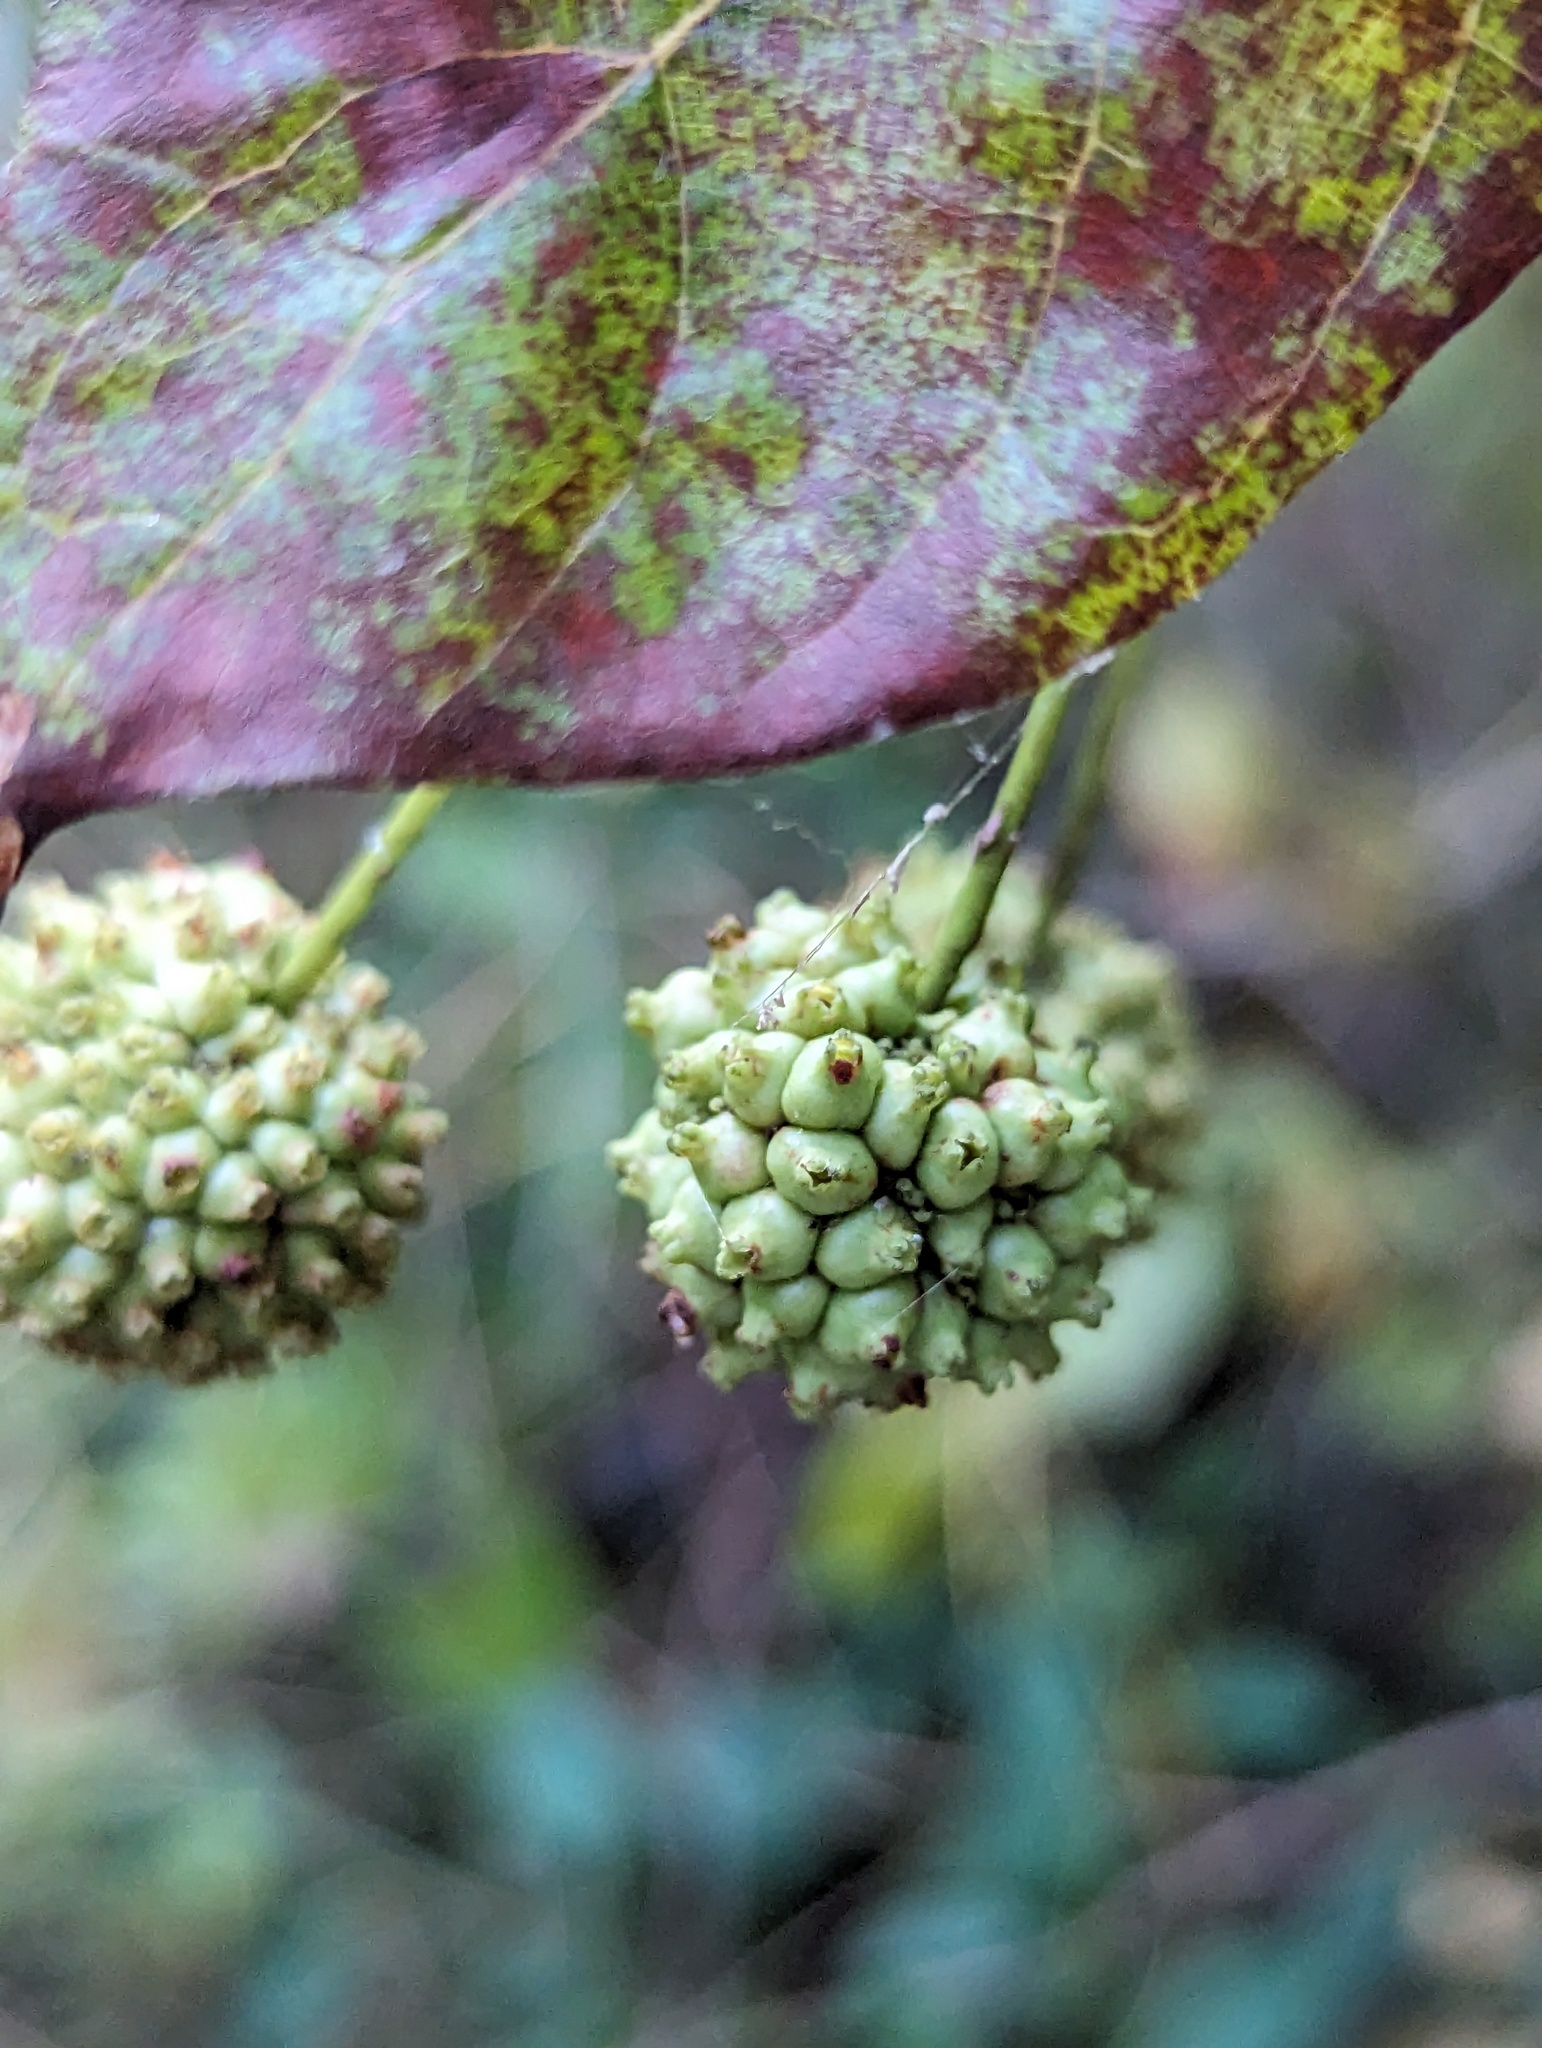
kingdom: Plantae
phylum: Tracheophyta
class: Magnoliopsida
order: Gentianales
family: Rubiaceae
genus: Cephalanthus
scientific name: Cephalanthus occidentalis
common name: Button-willow
